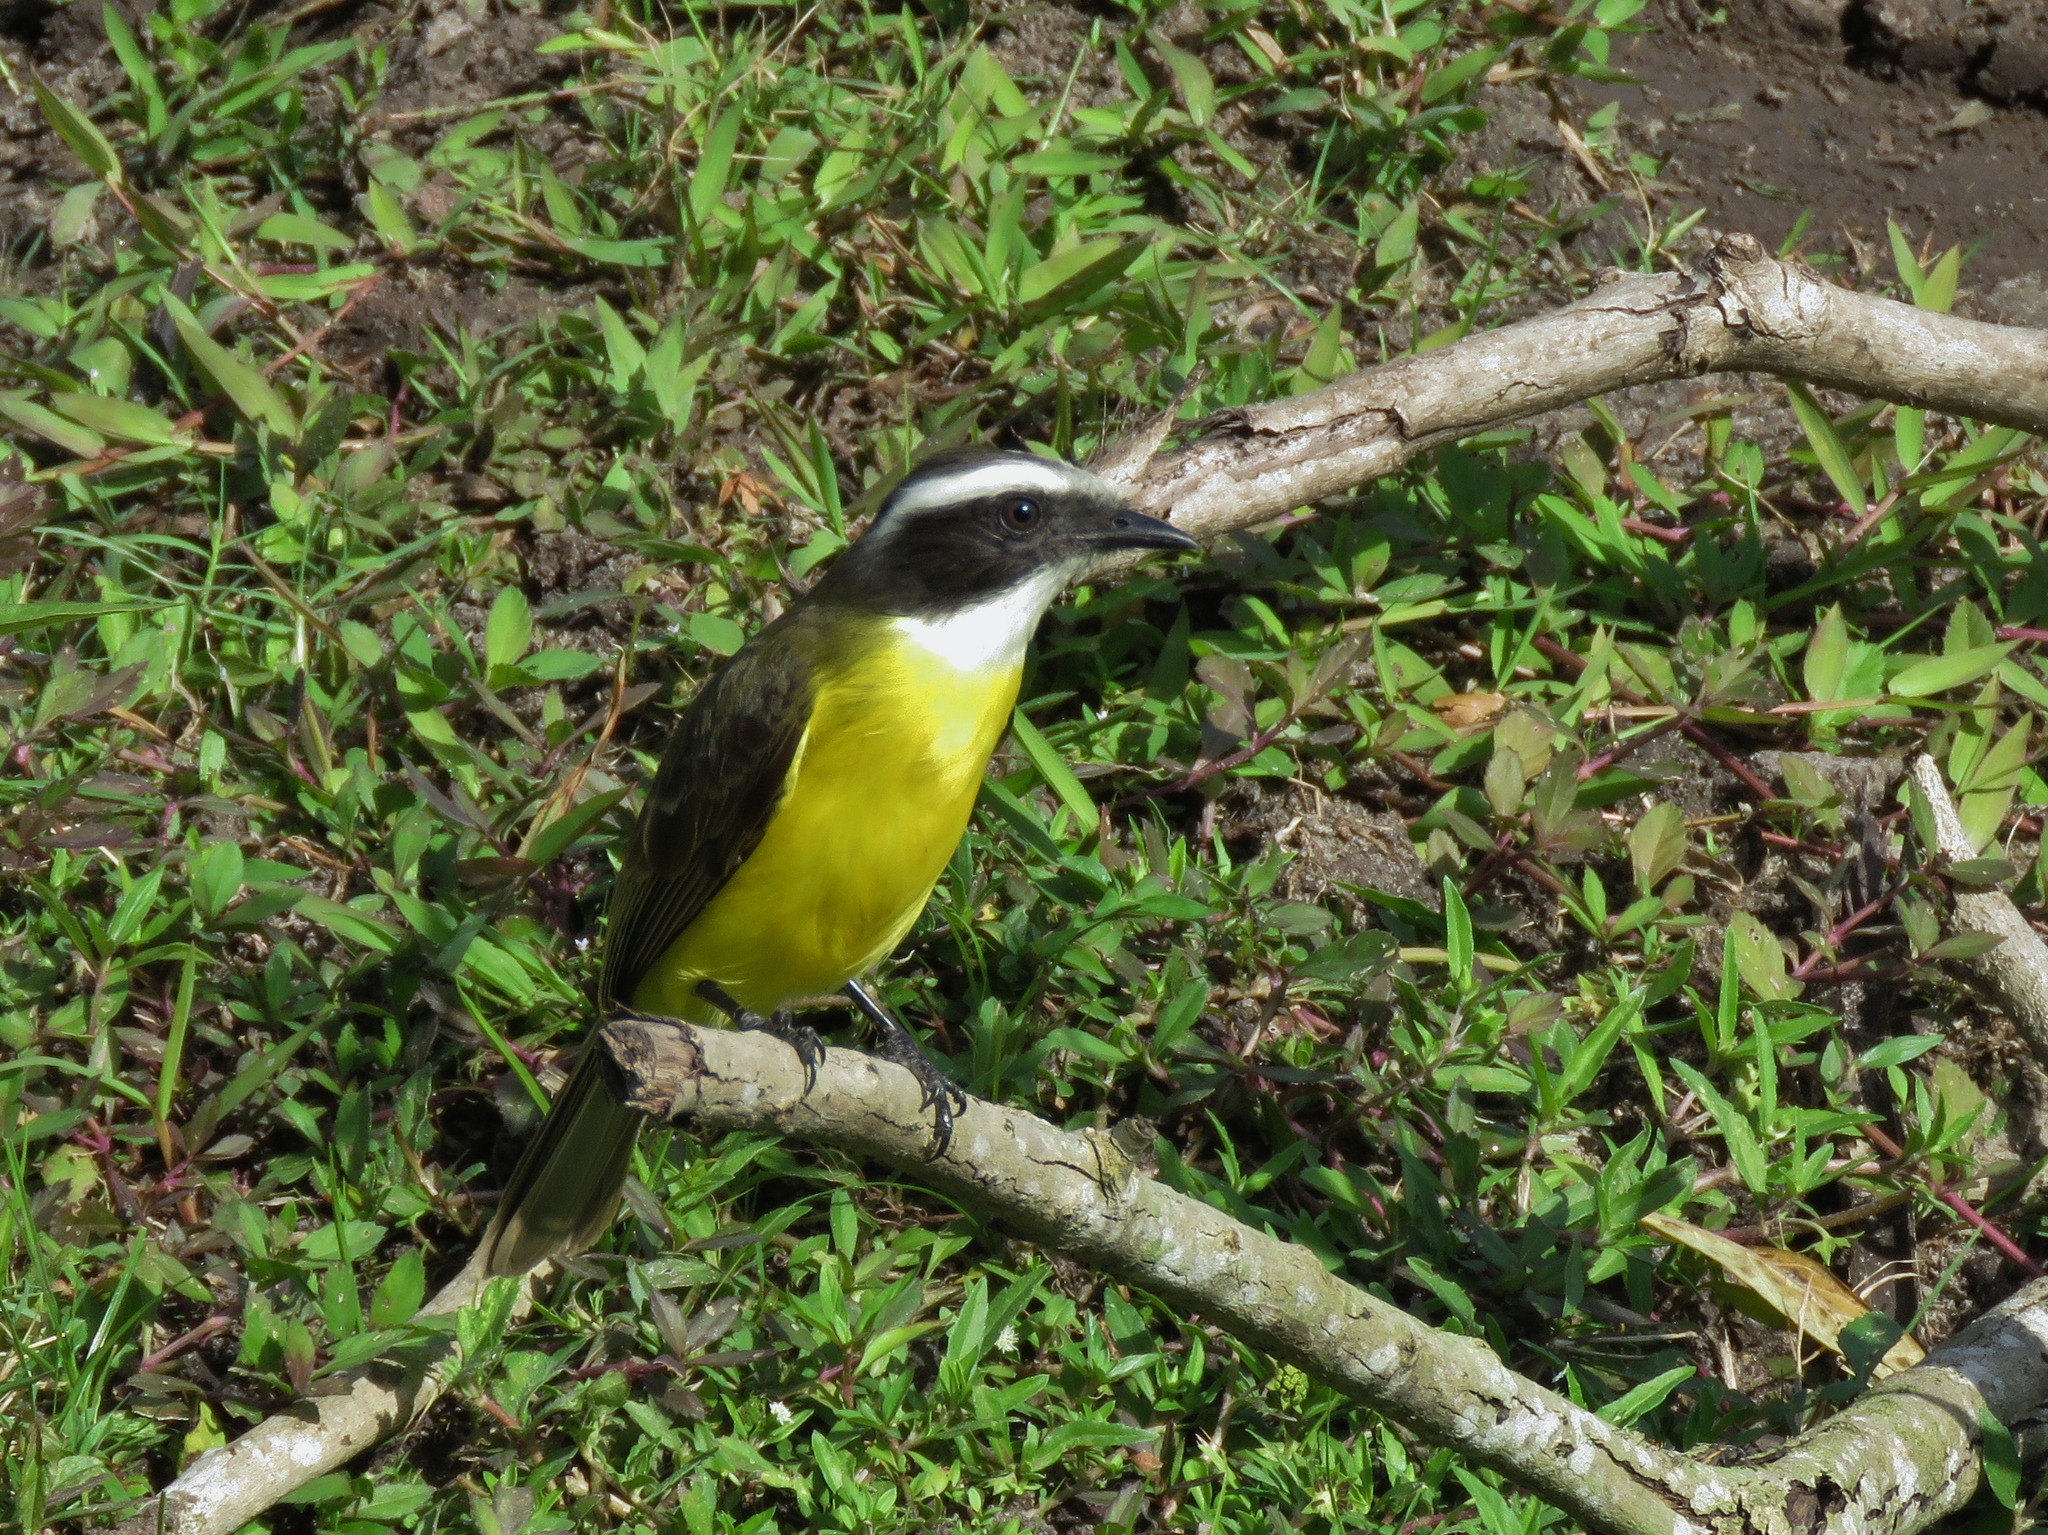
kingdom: Animalia
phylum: Chordata
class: Aves
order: Passeriformes
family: Tyrannidae
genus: Myiozetetes
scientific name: Myiozetetes similis
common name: Social flycatcher
